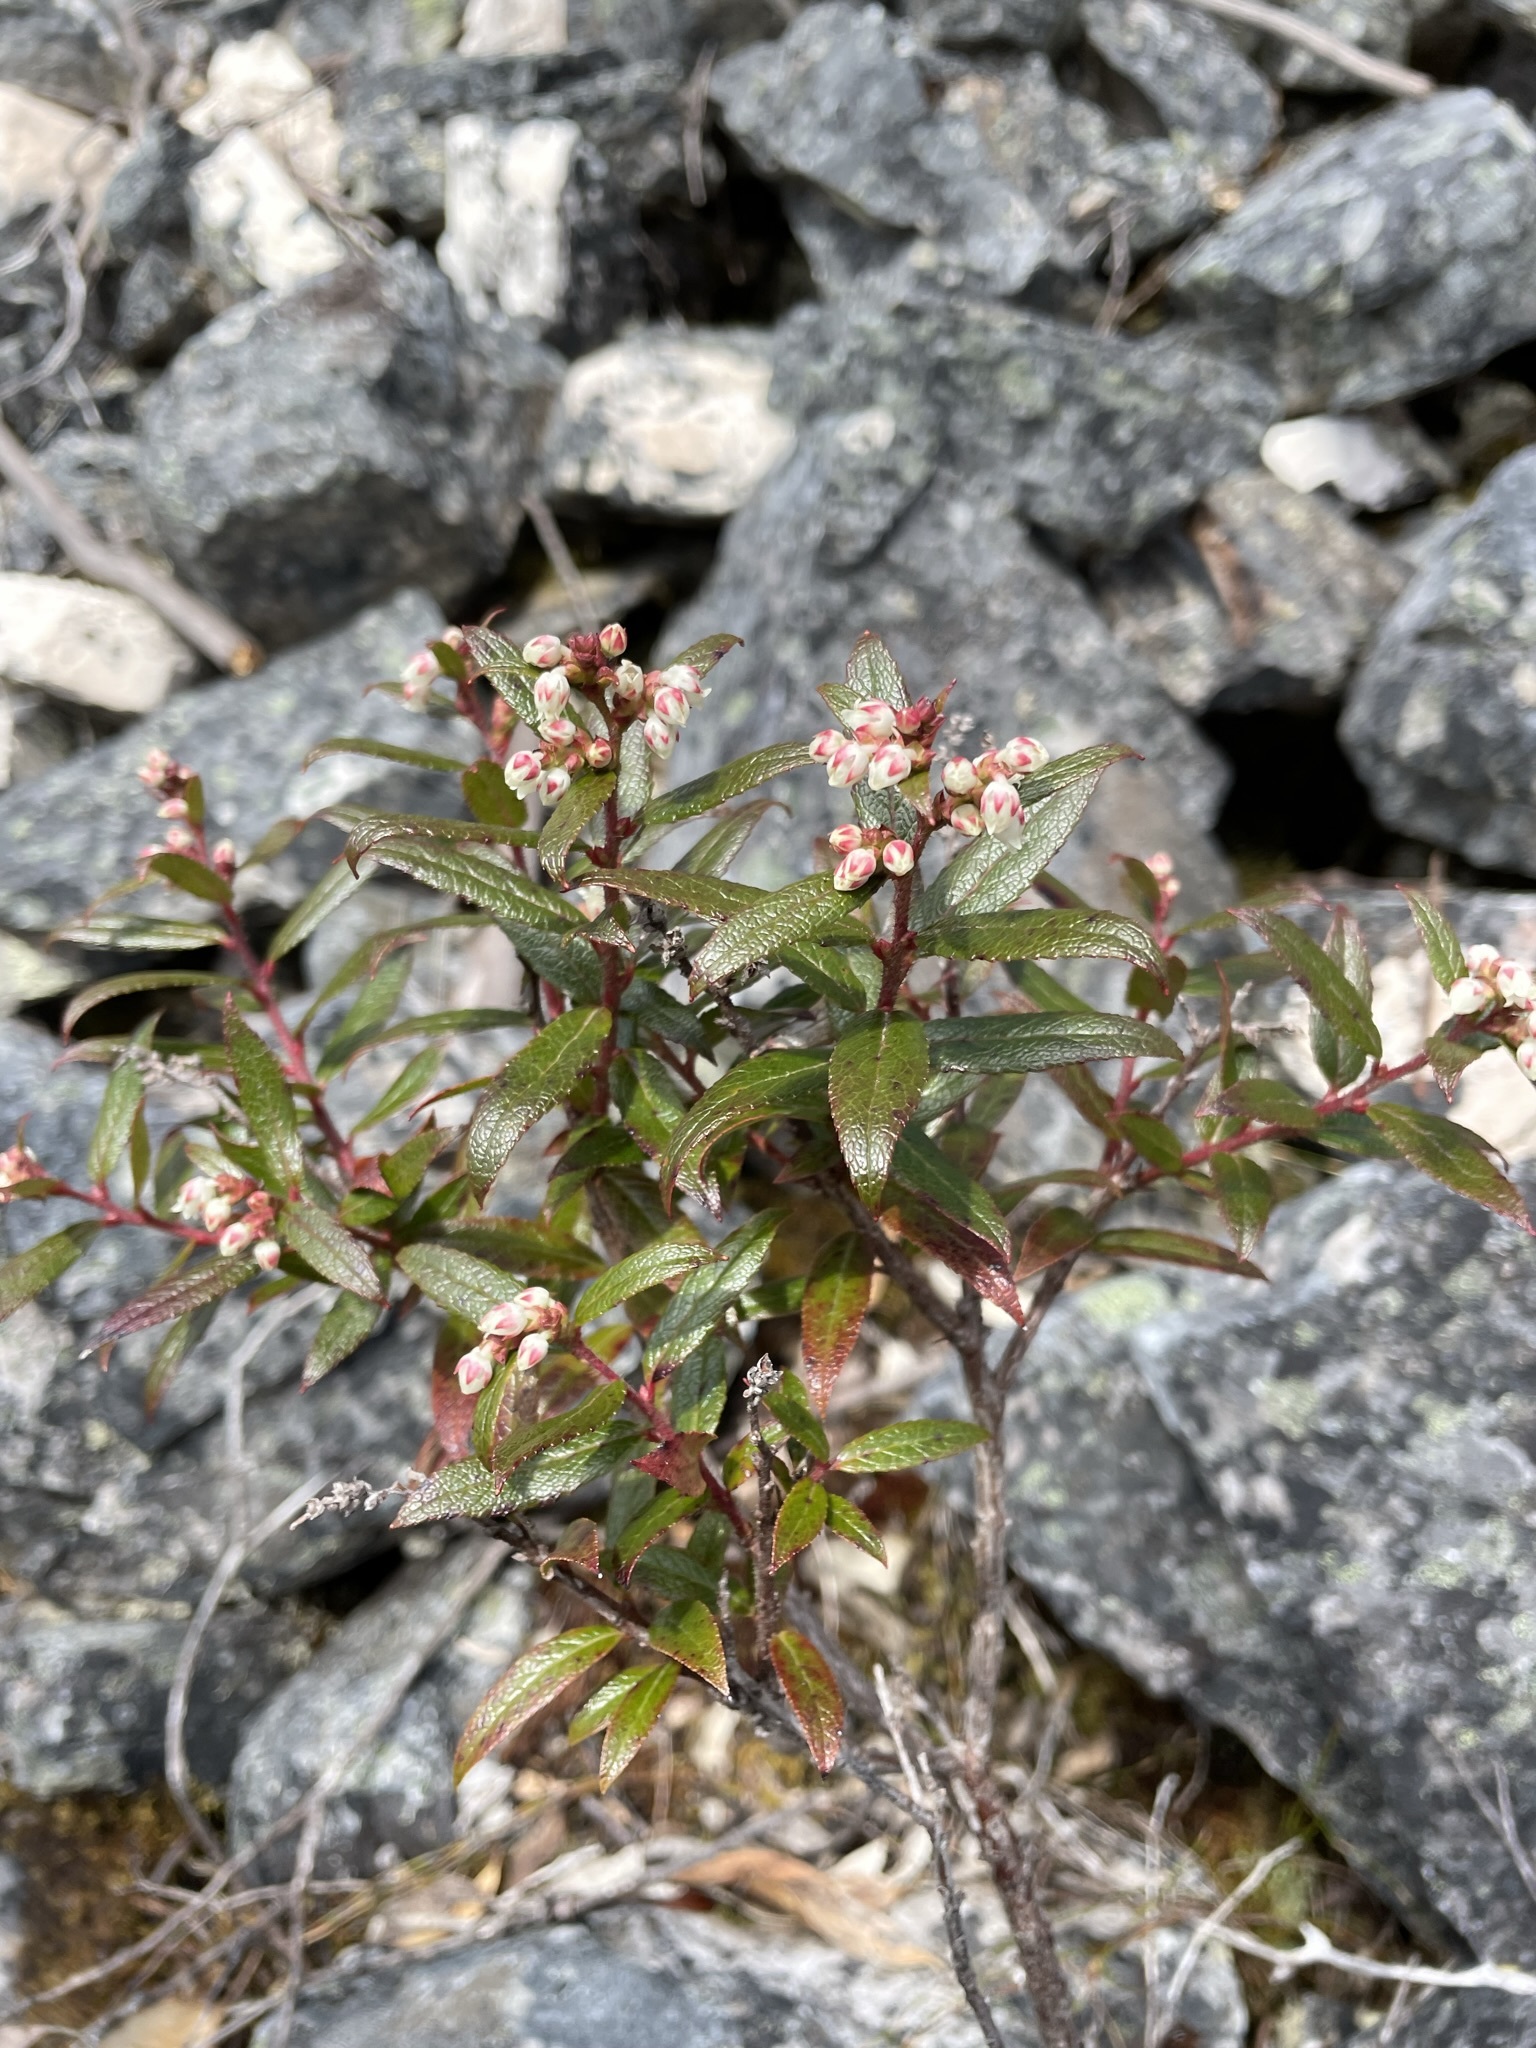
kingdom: Plantae
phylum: Tracheophyta
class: Magnoliopsida
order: Ericales
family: Ericaceae
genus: Gaultheria
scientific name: Gaultheria hispida
